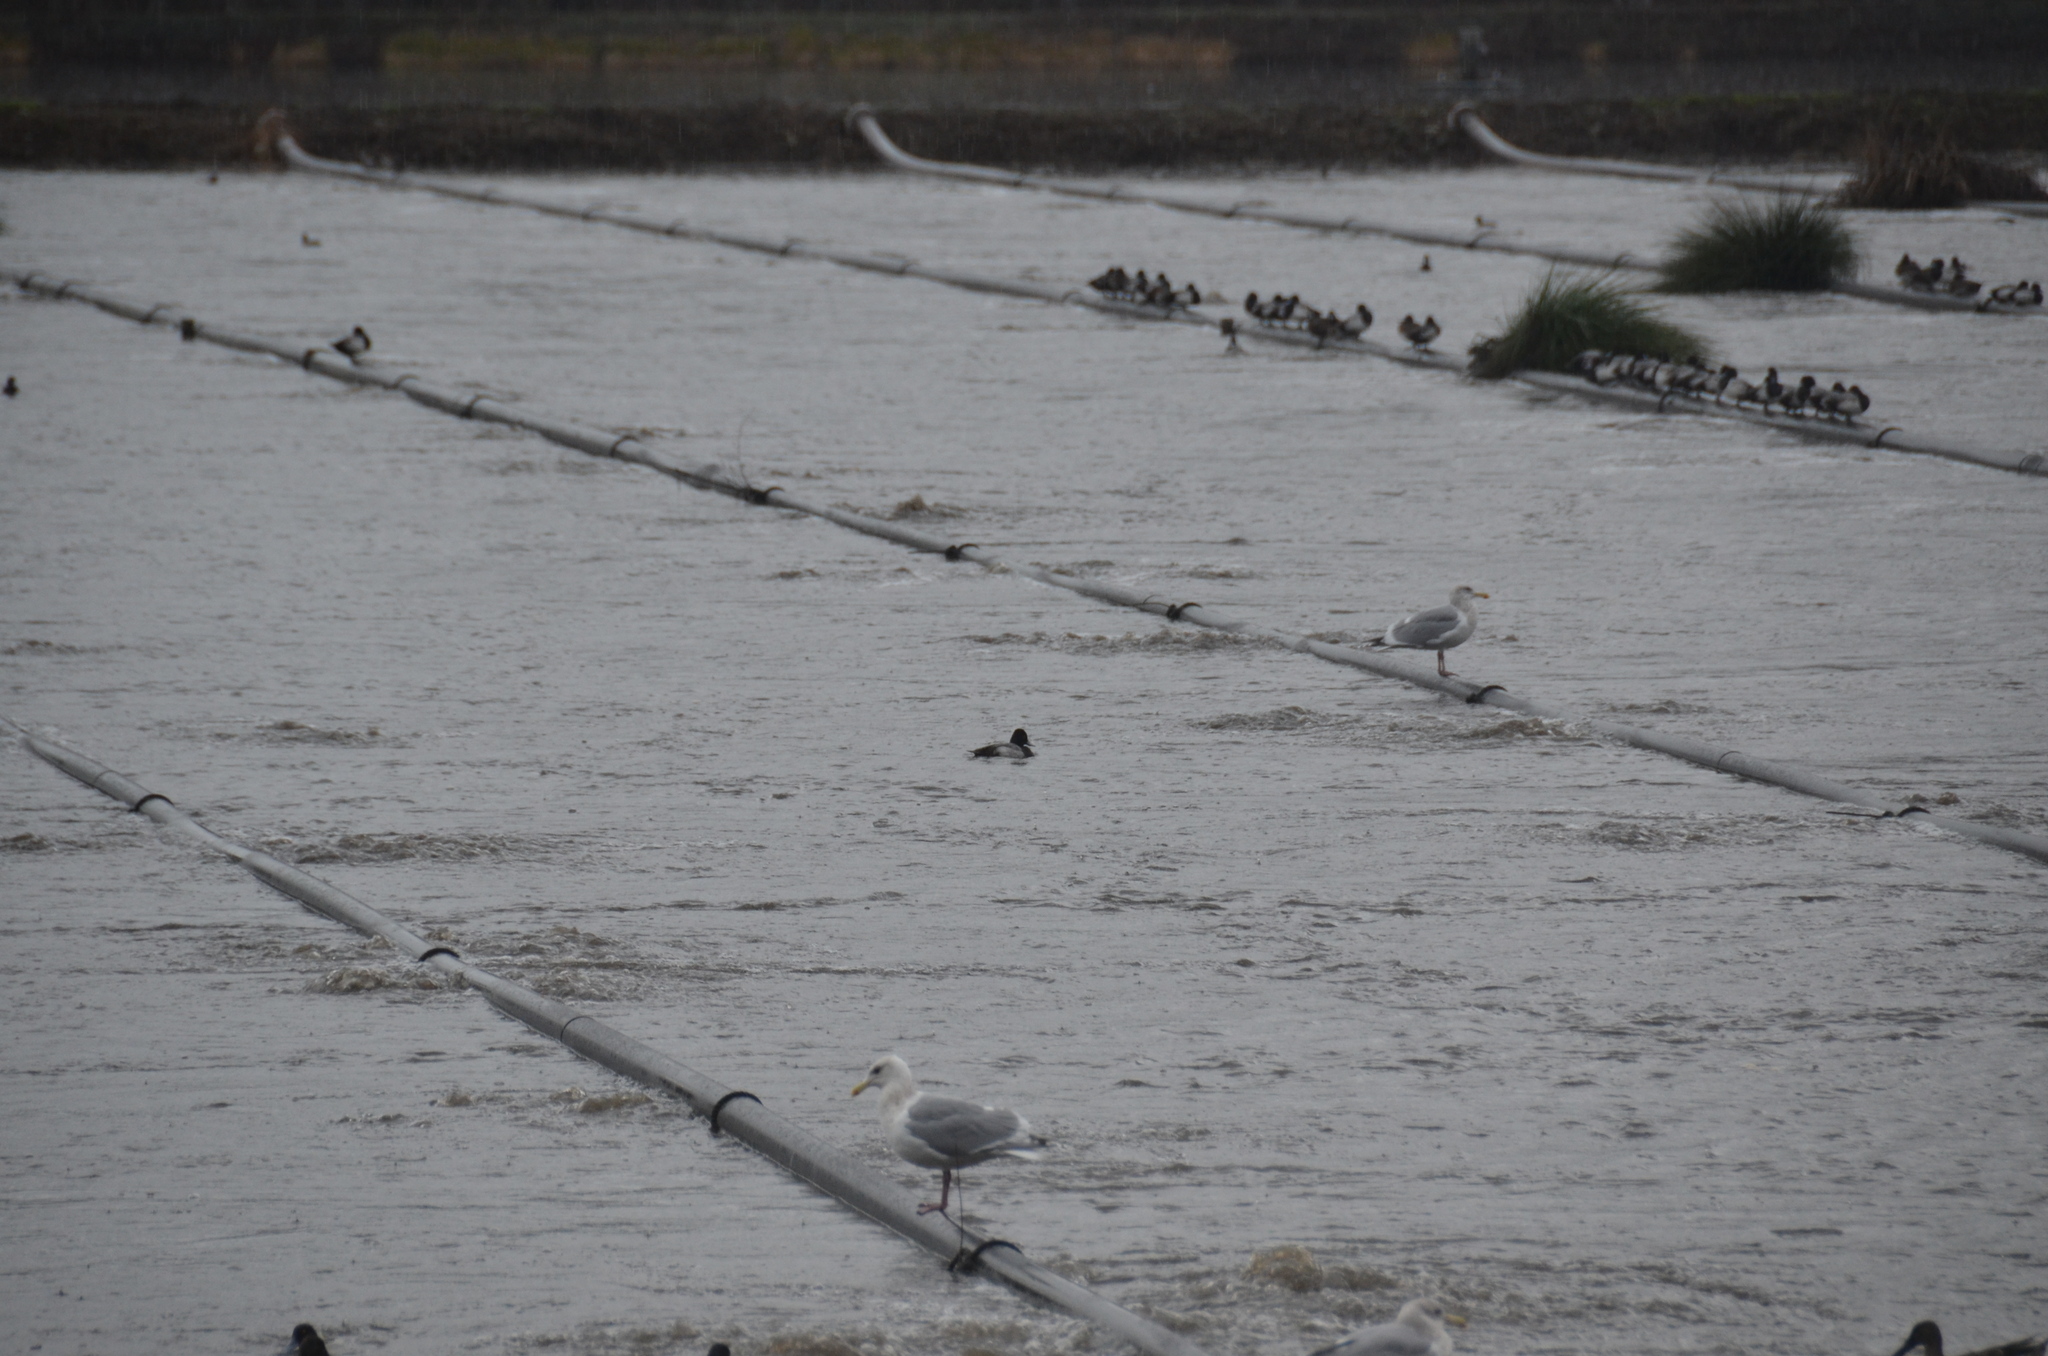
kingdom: Animalia
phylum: Chordata
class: Aves
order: Anseriformes
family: Anatidae
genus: Aythya
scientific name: Aythya affinis
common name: Lesser scaup
